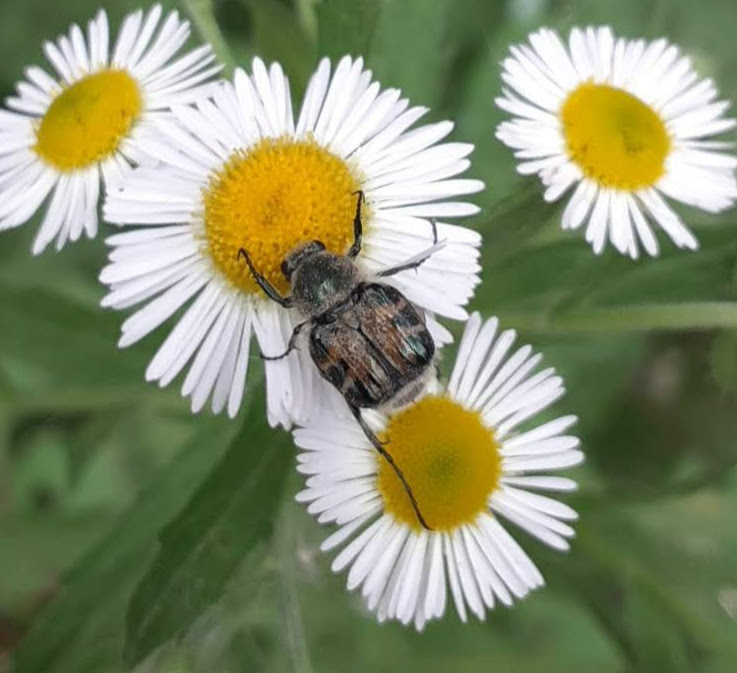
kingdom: Animalia
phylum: Arthropoda
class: Insecta
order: Coleoptera
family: Scarabaeidae
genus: Trichiotinus
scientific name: Trichiotinus piger
